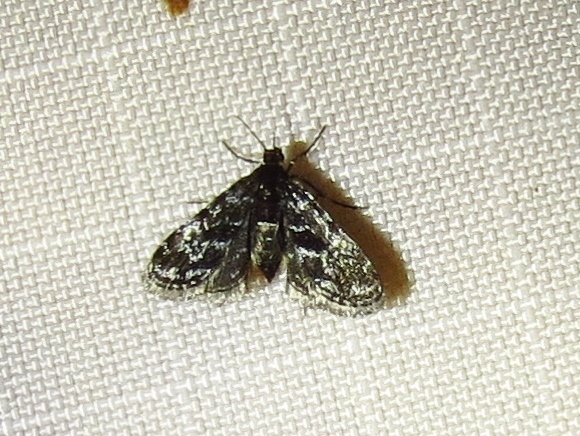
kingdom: Animalia
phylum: Arthropoda
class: Insecta
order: Lepidoptera
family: Crambidae
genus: Elophila
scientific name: Elophila tinealis
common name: Black duckweed moth
